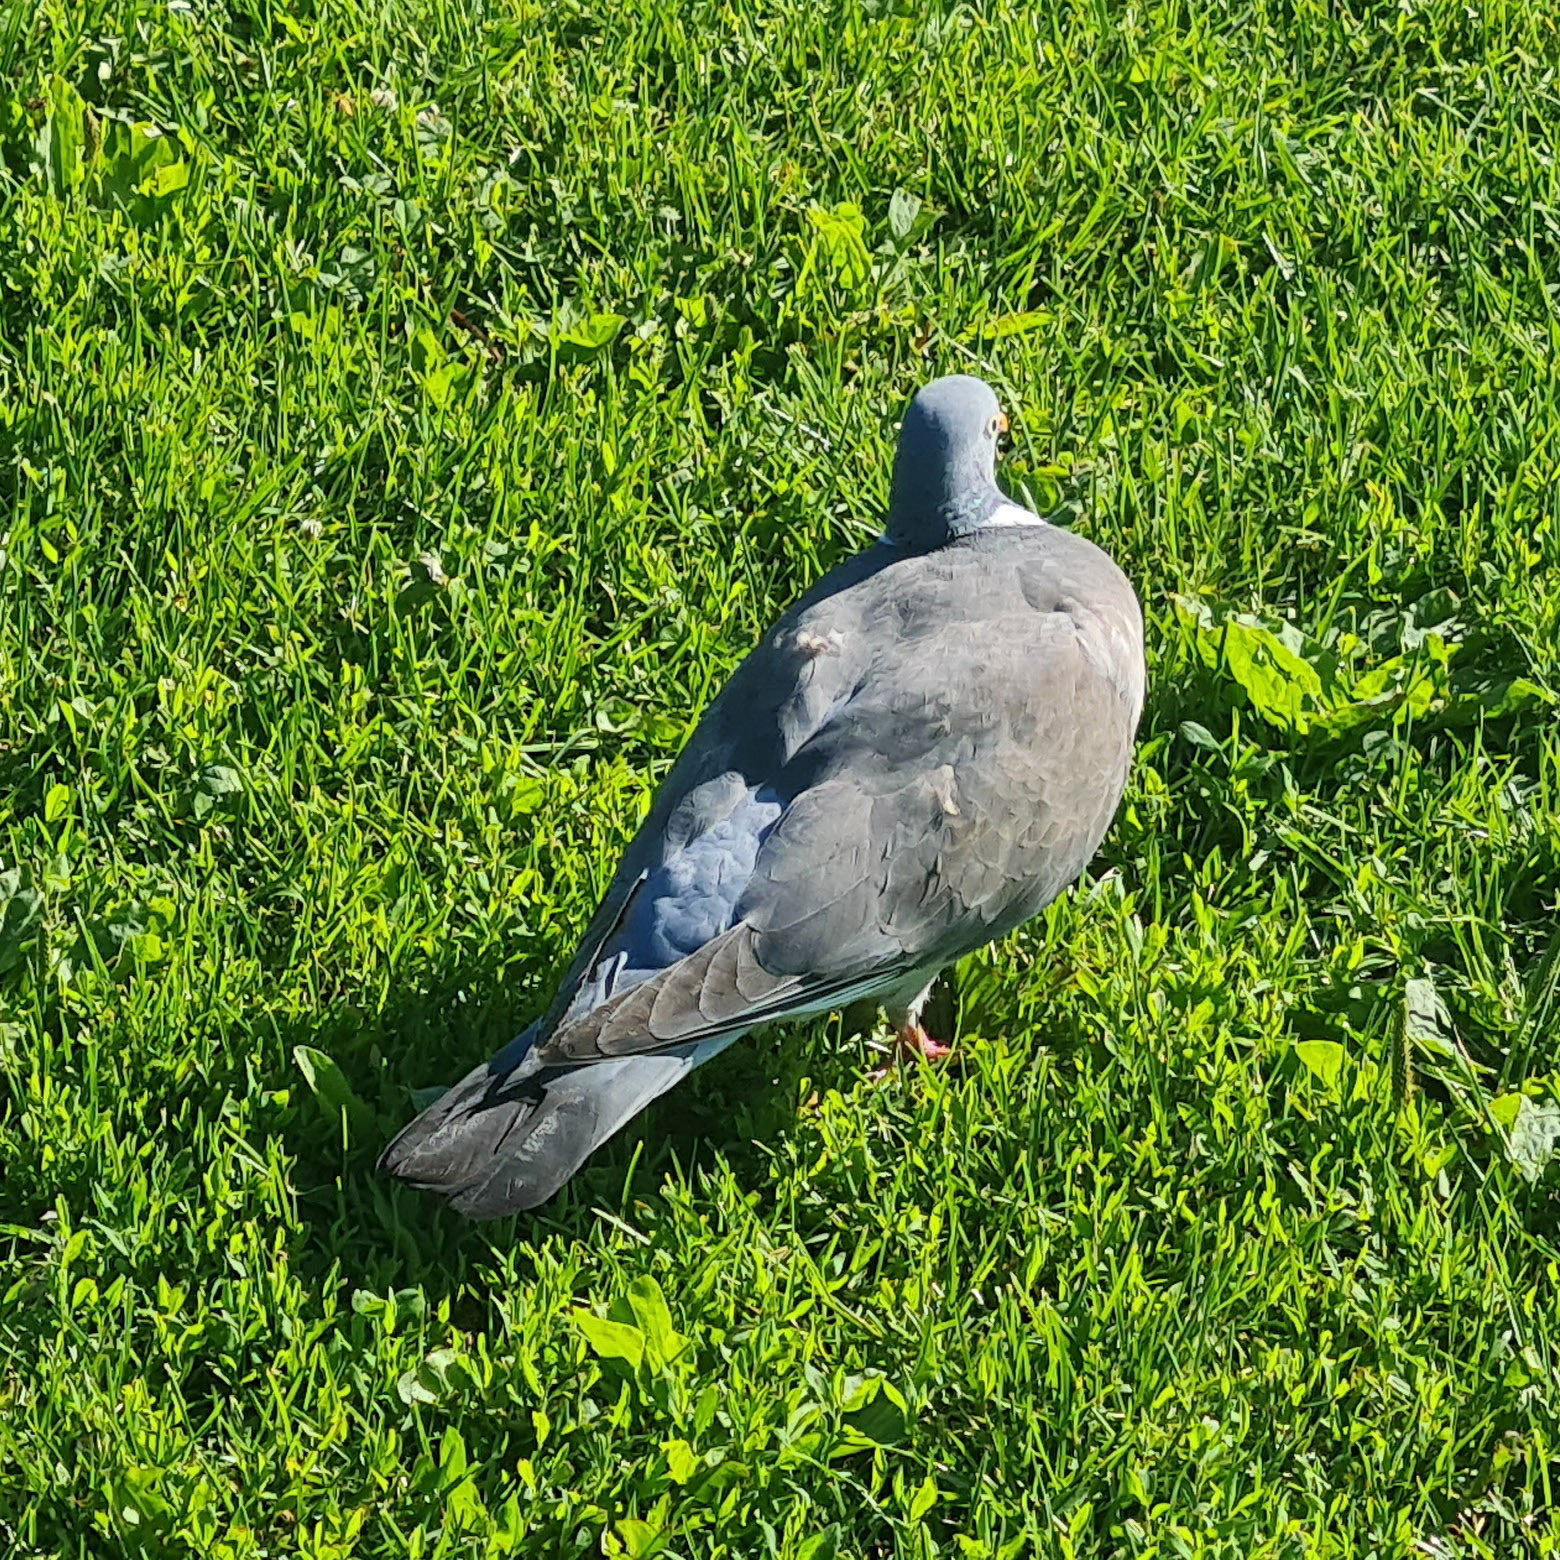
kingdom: Animalia
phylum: Chordata
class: Aves
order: Columbiformes
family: Columbidae
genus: Columba
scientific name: Columba palumbus
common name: Common wood pigeon
